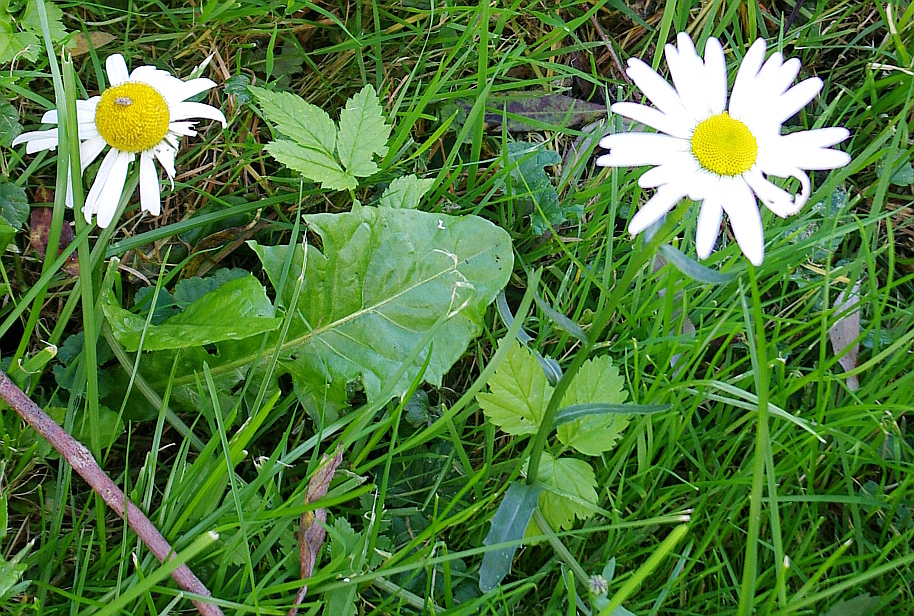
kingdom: Plantae
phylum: Tracheophyta
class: Magnoliopsida
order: Asterales
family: Asteraceae
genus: Leucanthemum
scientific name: Leucanthemum vulgare
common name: Oxeye daisy
